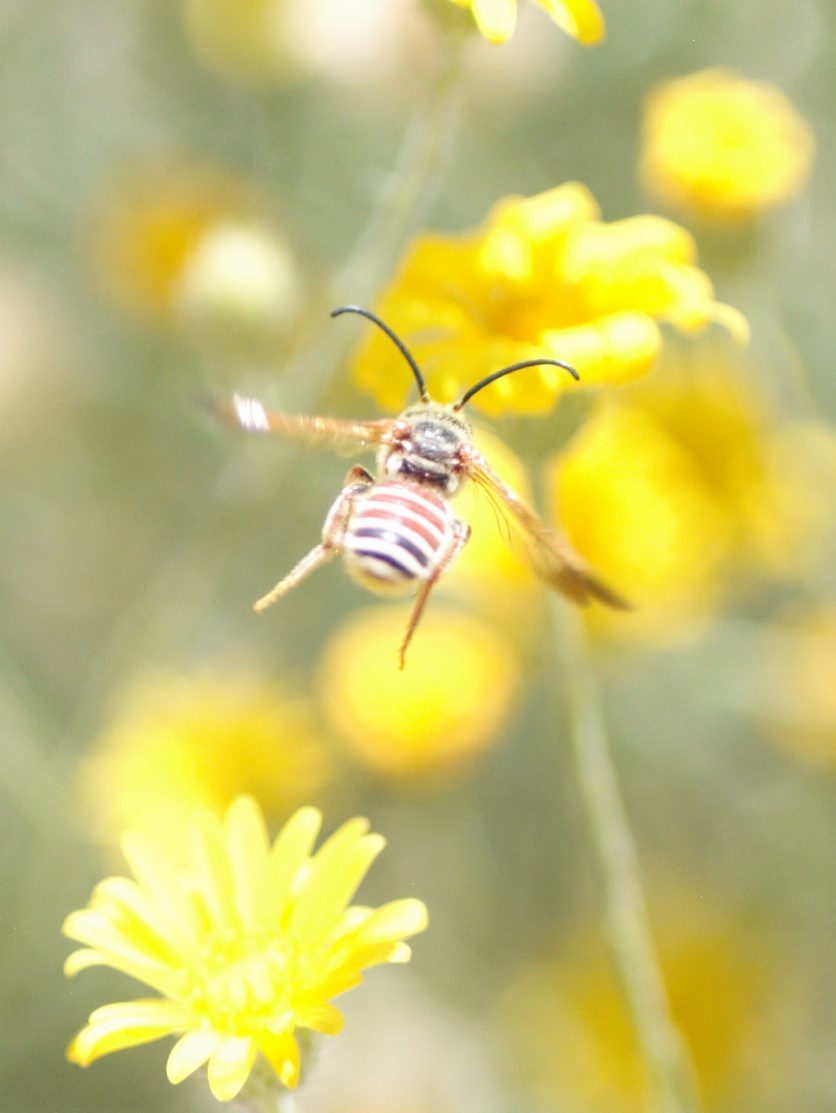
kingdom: Animalia
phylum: Arthropoda
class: Insecta
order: Hymenoptera
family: Halictidae
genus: Dieunomia
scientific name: Dieunomia nevadensis
